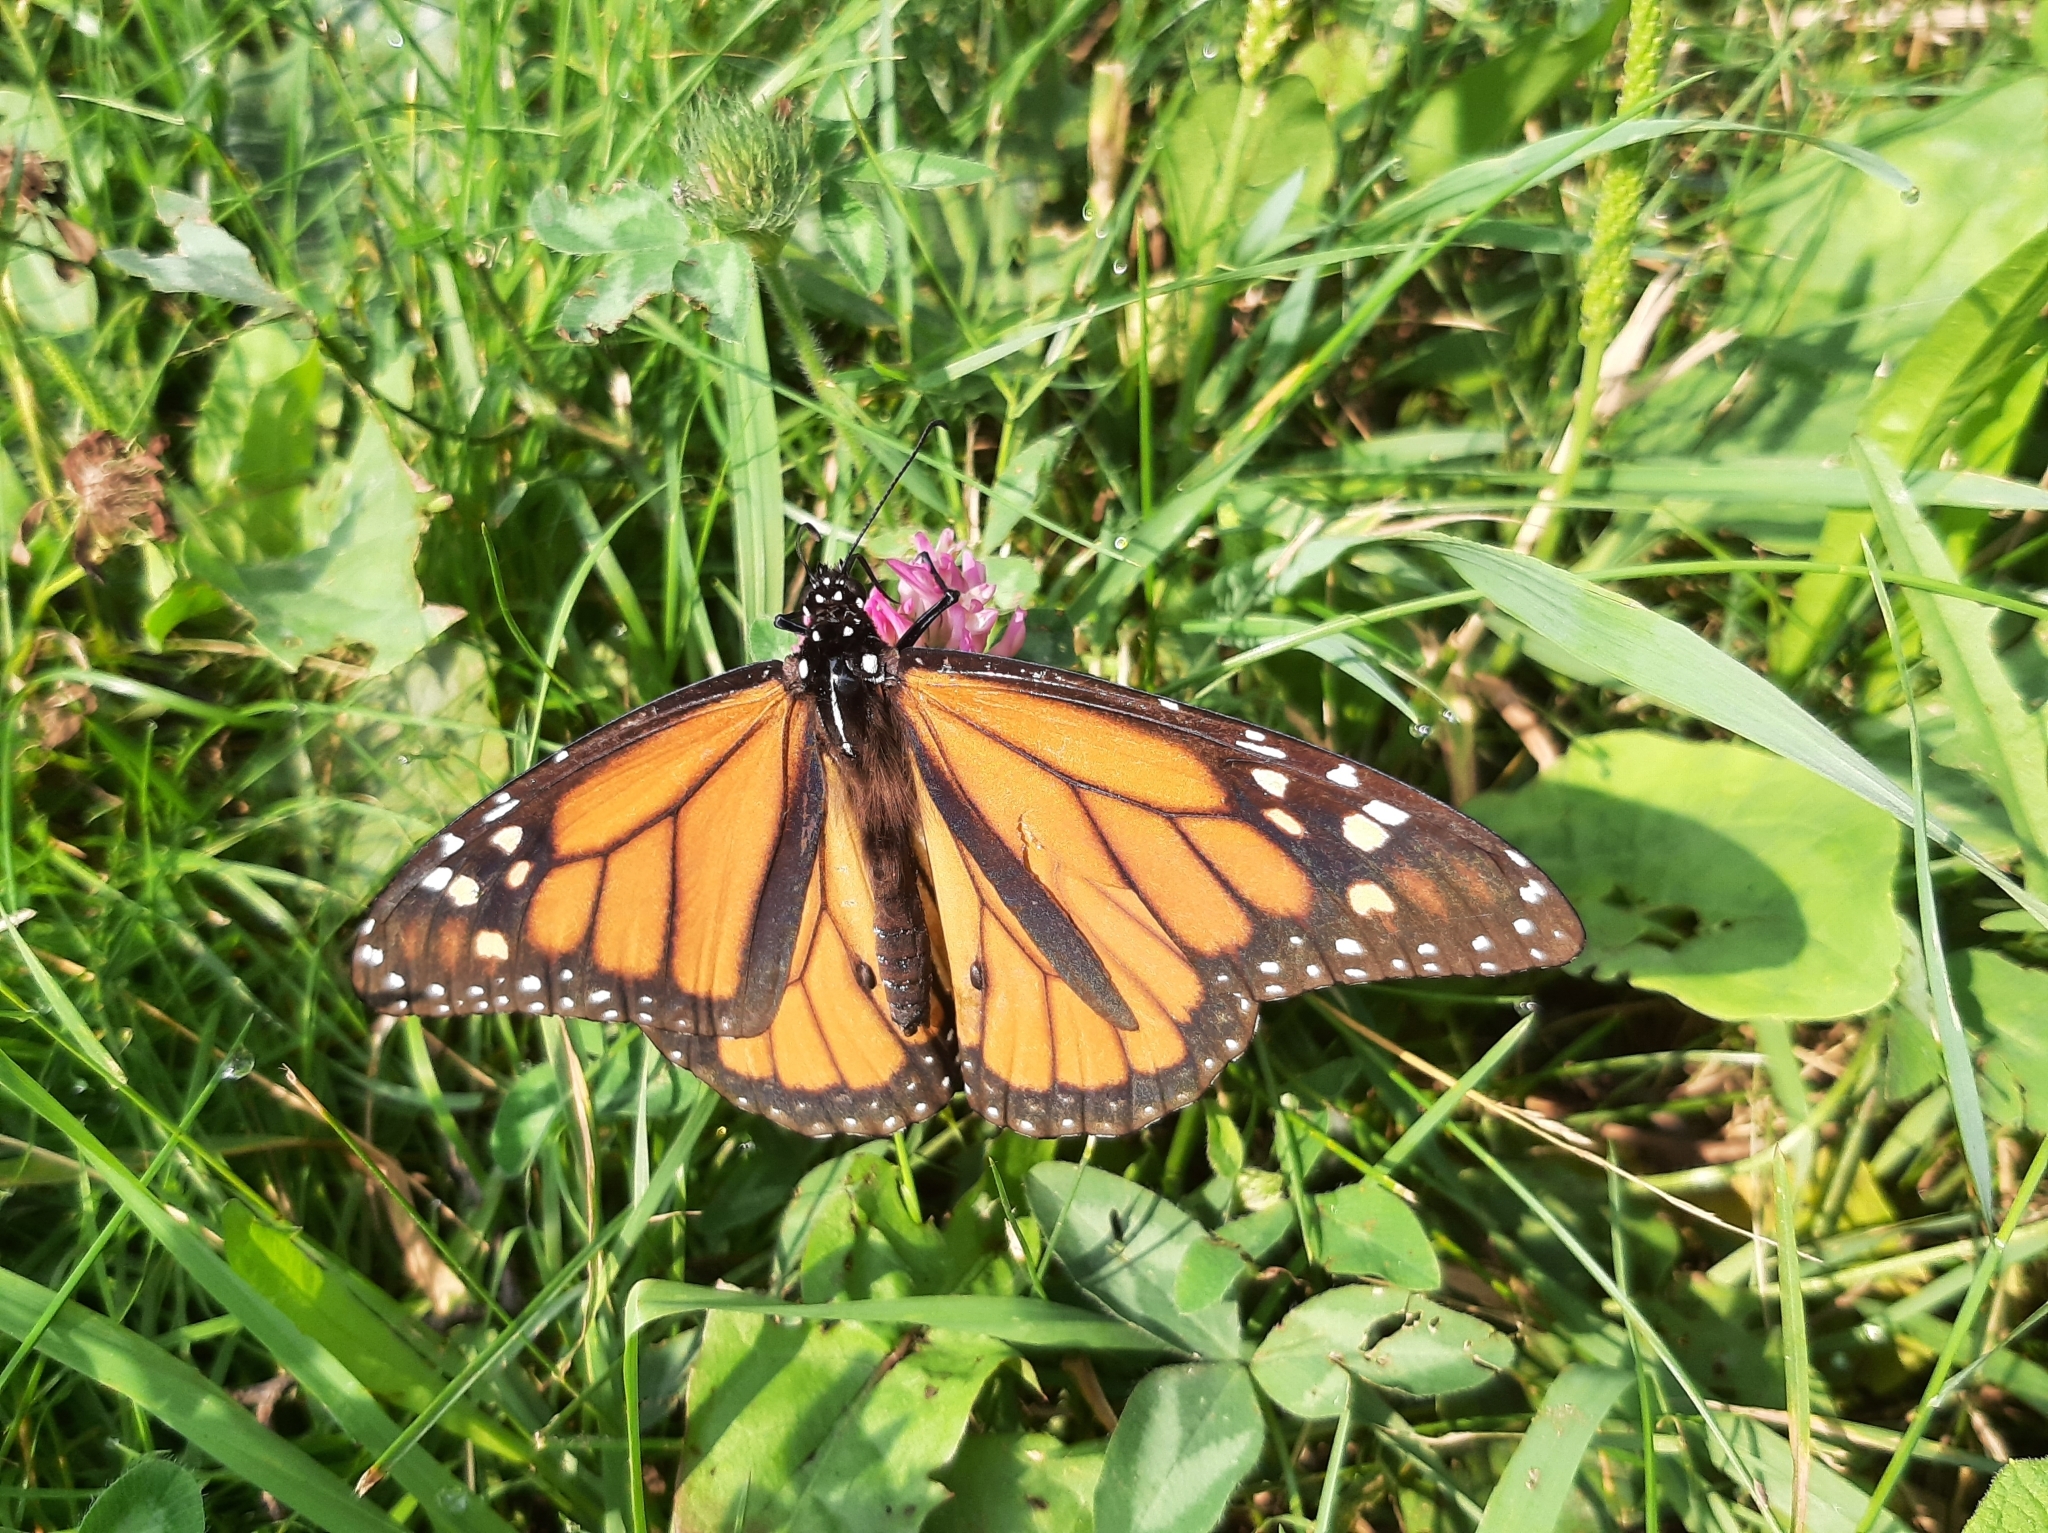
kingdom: Animalia
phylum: Arthropoda
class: Insecta
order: Lepidoptera
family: Nymphalidae
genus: Danaus
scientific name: Danaus plexippus
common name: Monarch
